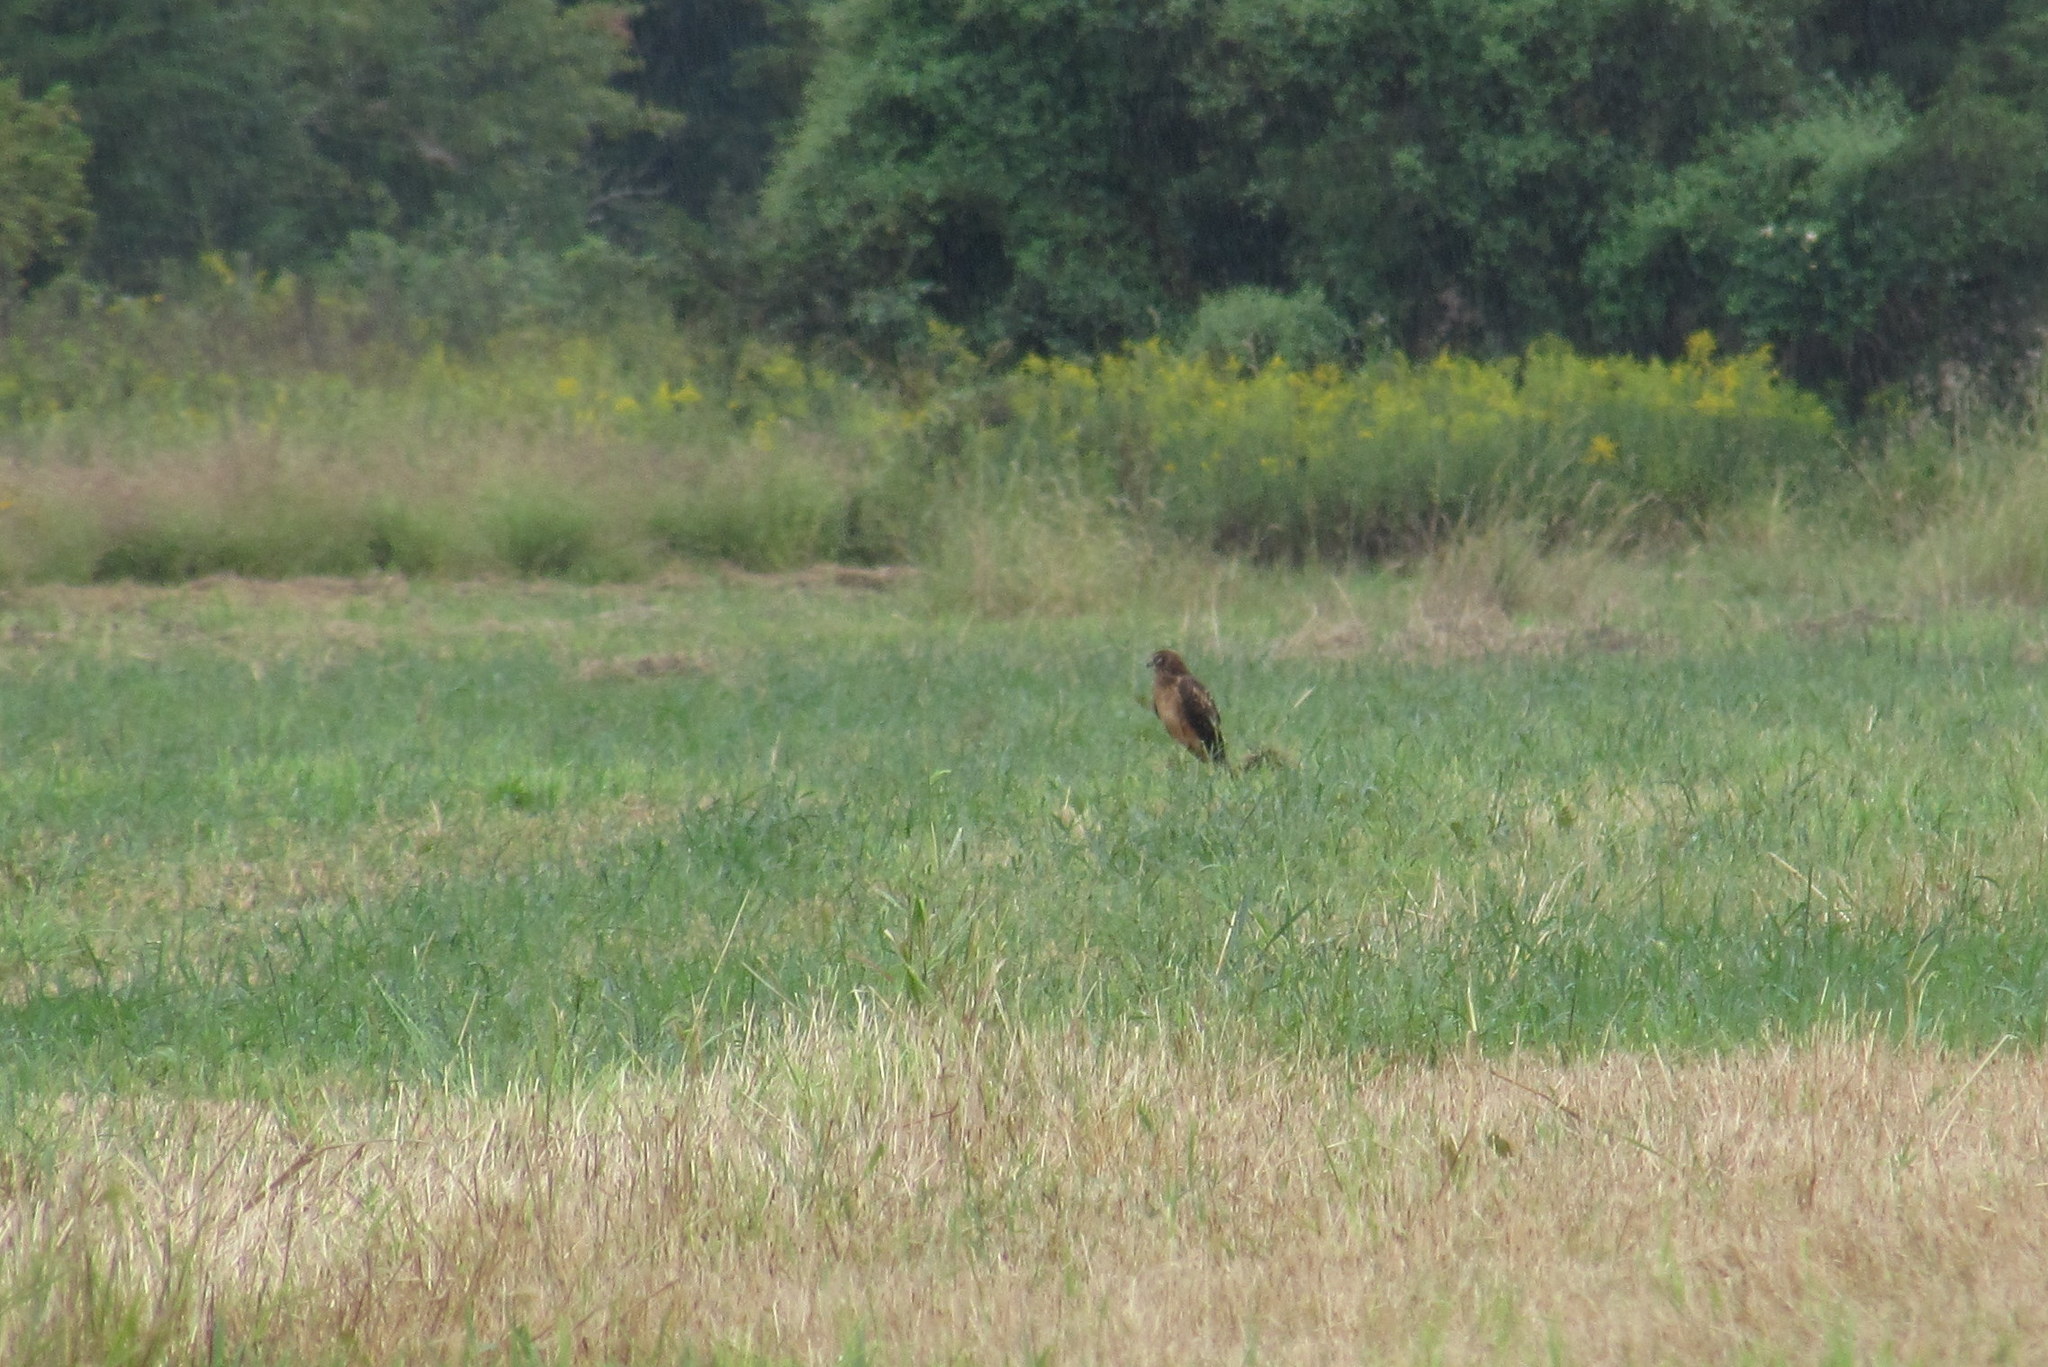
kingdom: Animalia
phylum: Chordata
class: Aves
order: Accipitriformes
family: Accipitridae
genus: Circus
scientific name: Circus cyaneus
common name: Hen harrier
